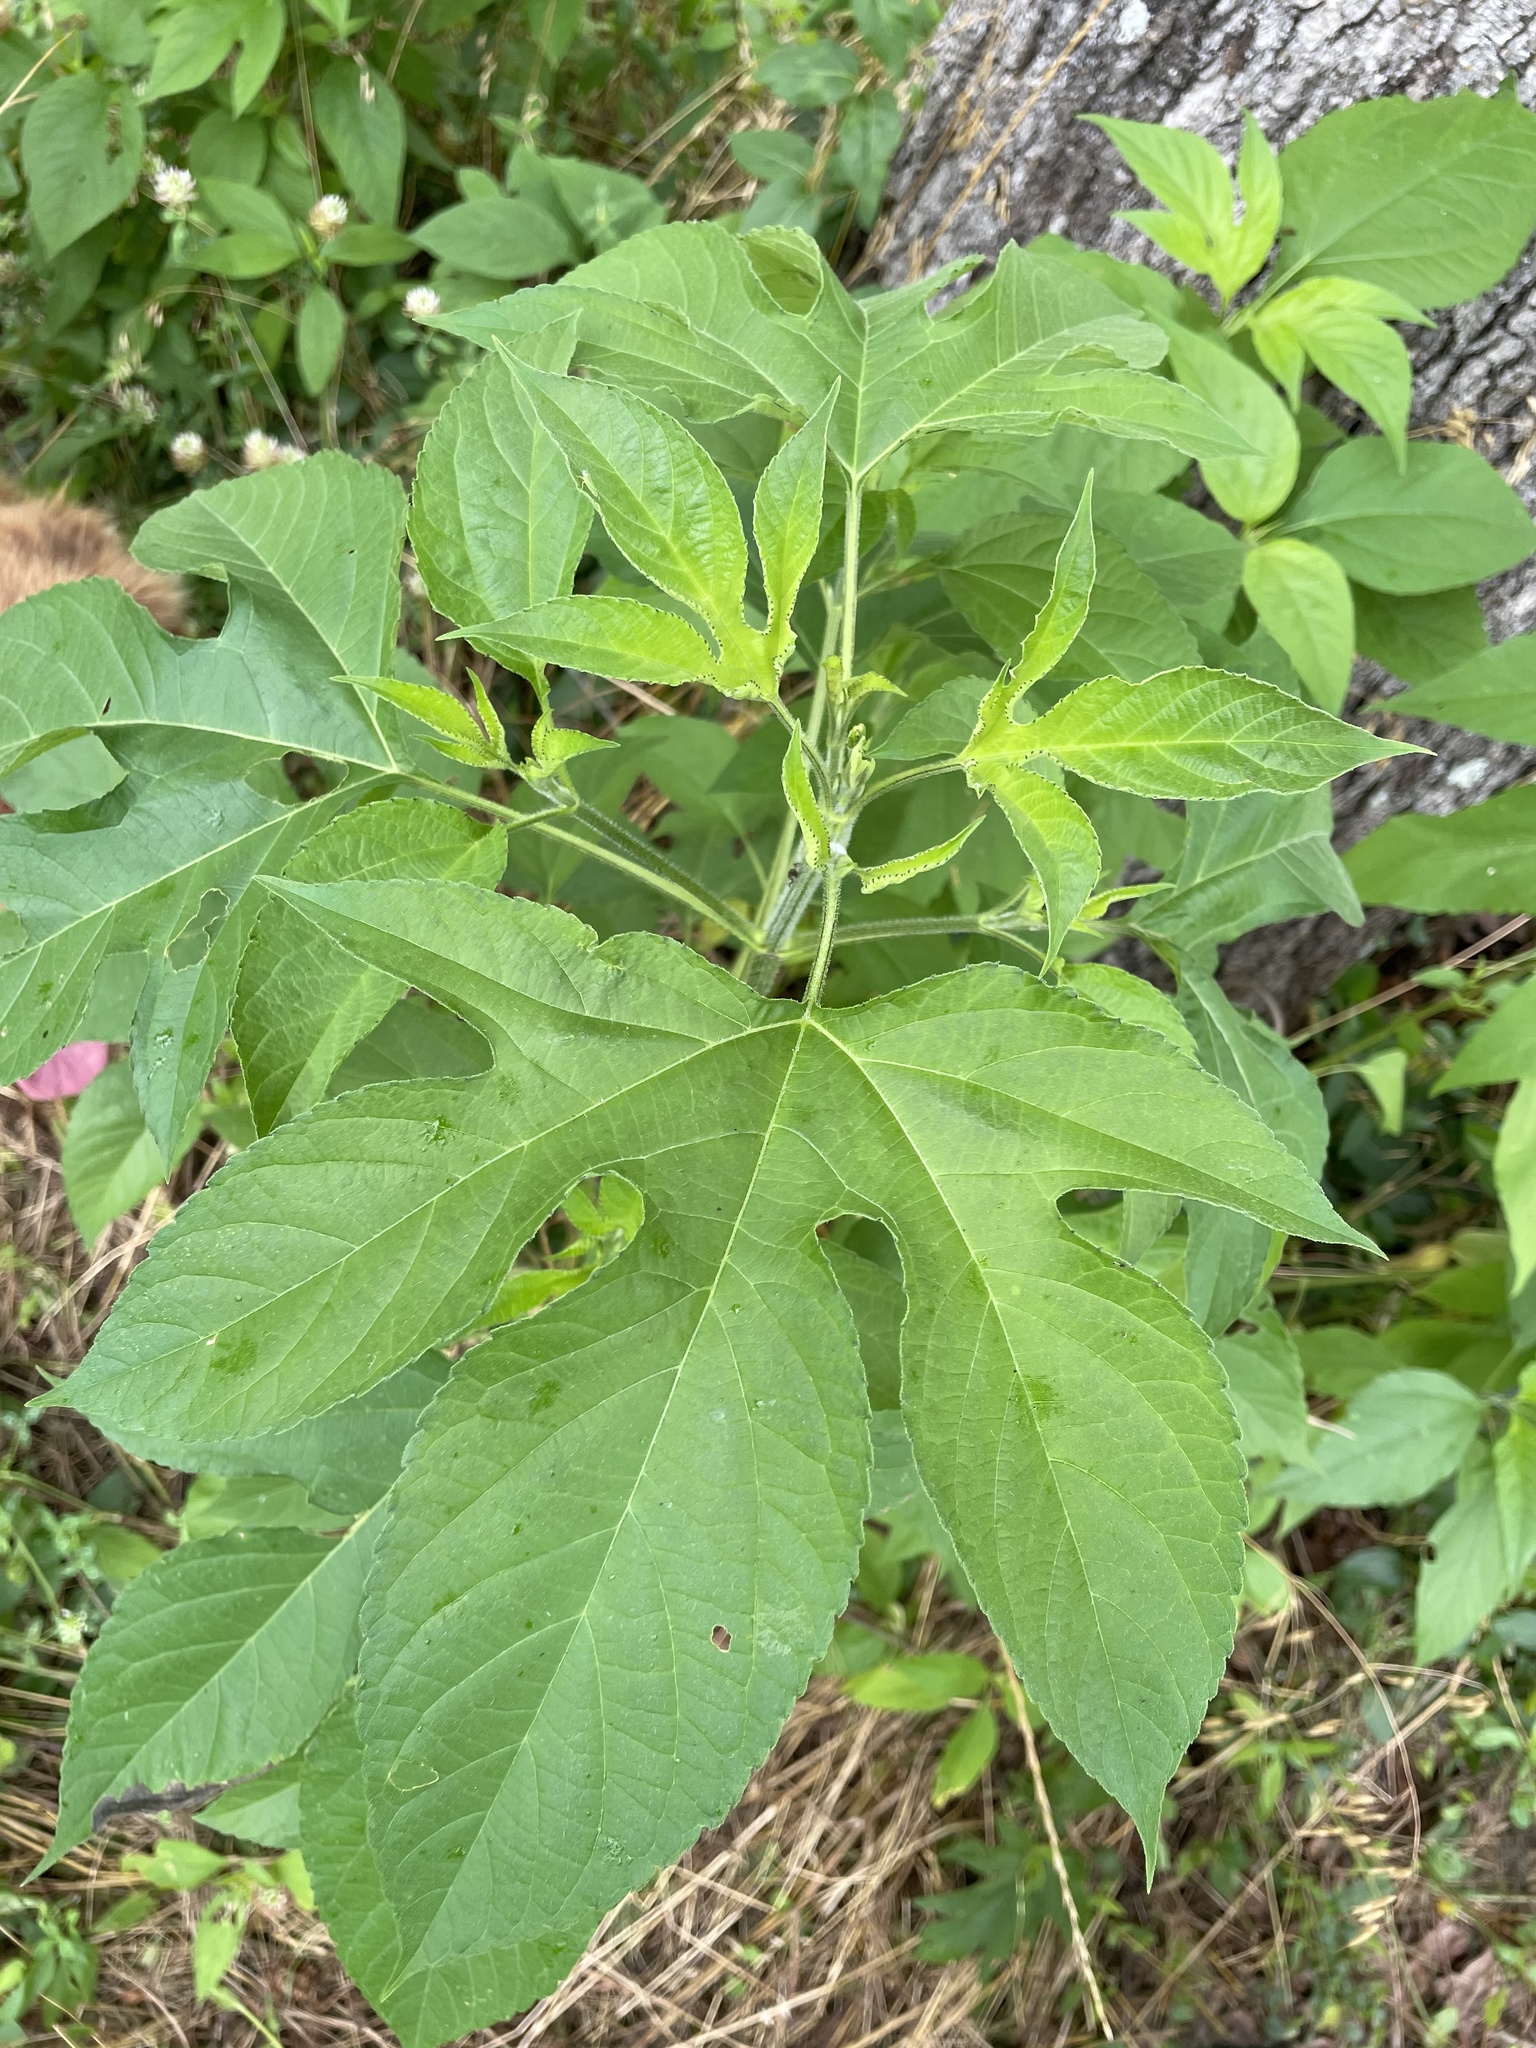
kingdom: Plantae
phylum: Tracheophyta
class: Magnoliopsida
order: Asterales
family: Asteraceae
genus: Ambrosia
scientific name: Ambrosia trifida
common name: Giant ragweed
